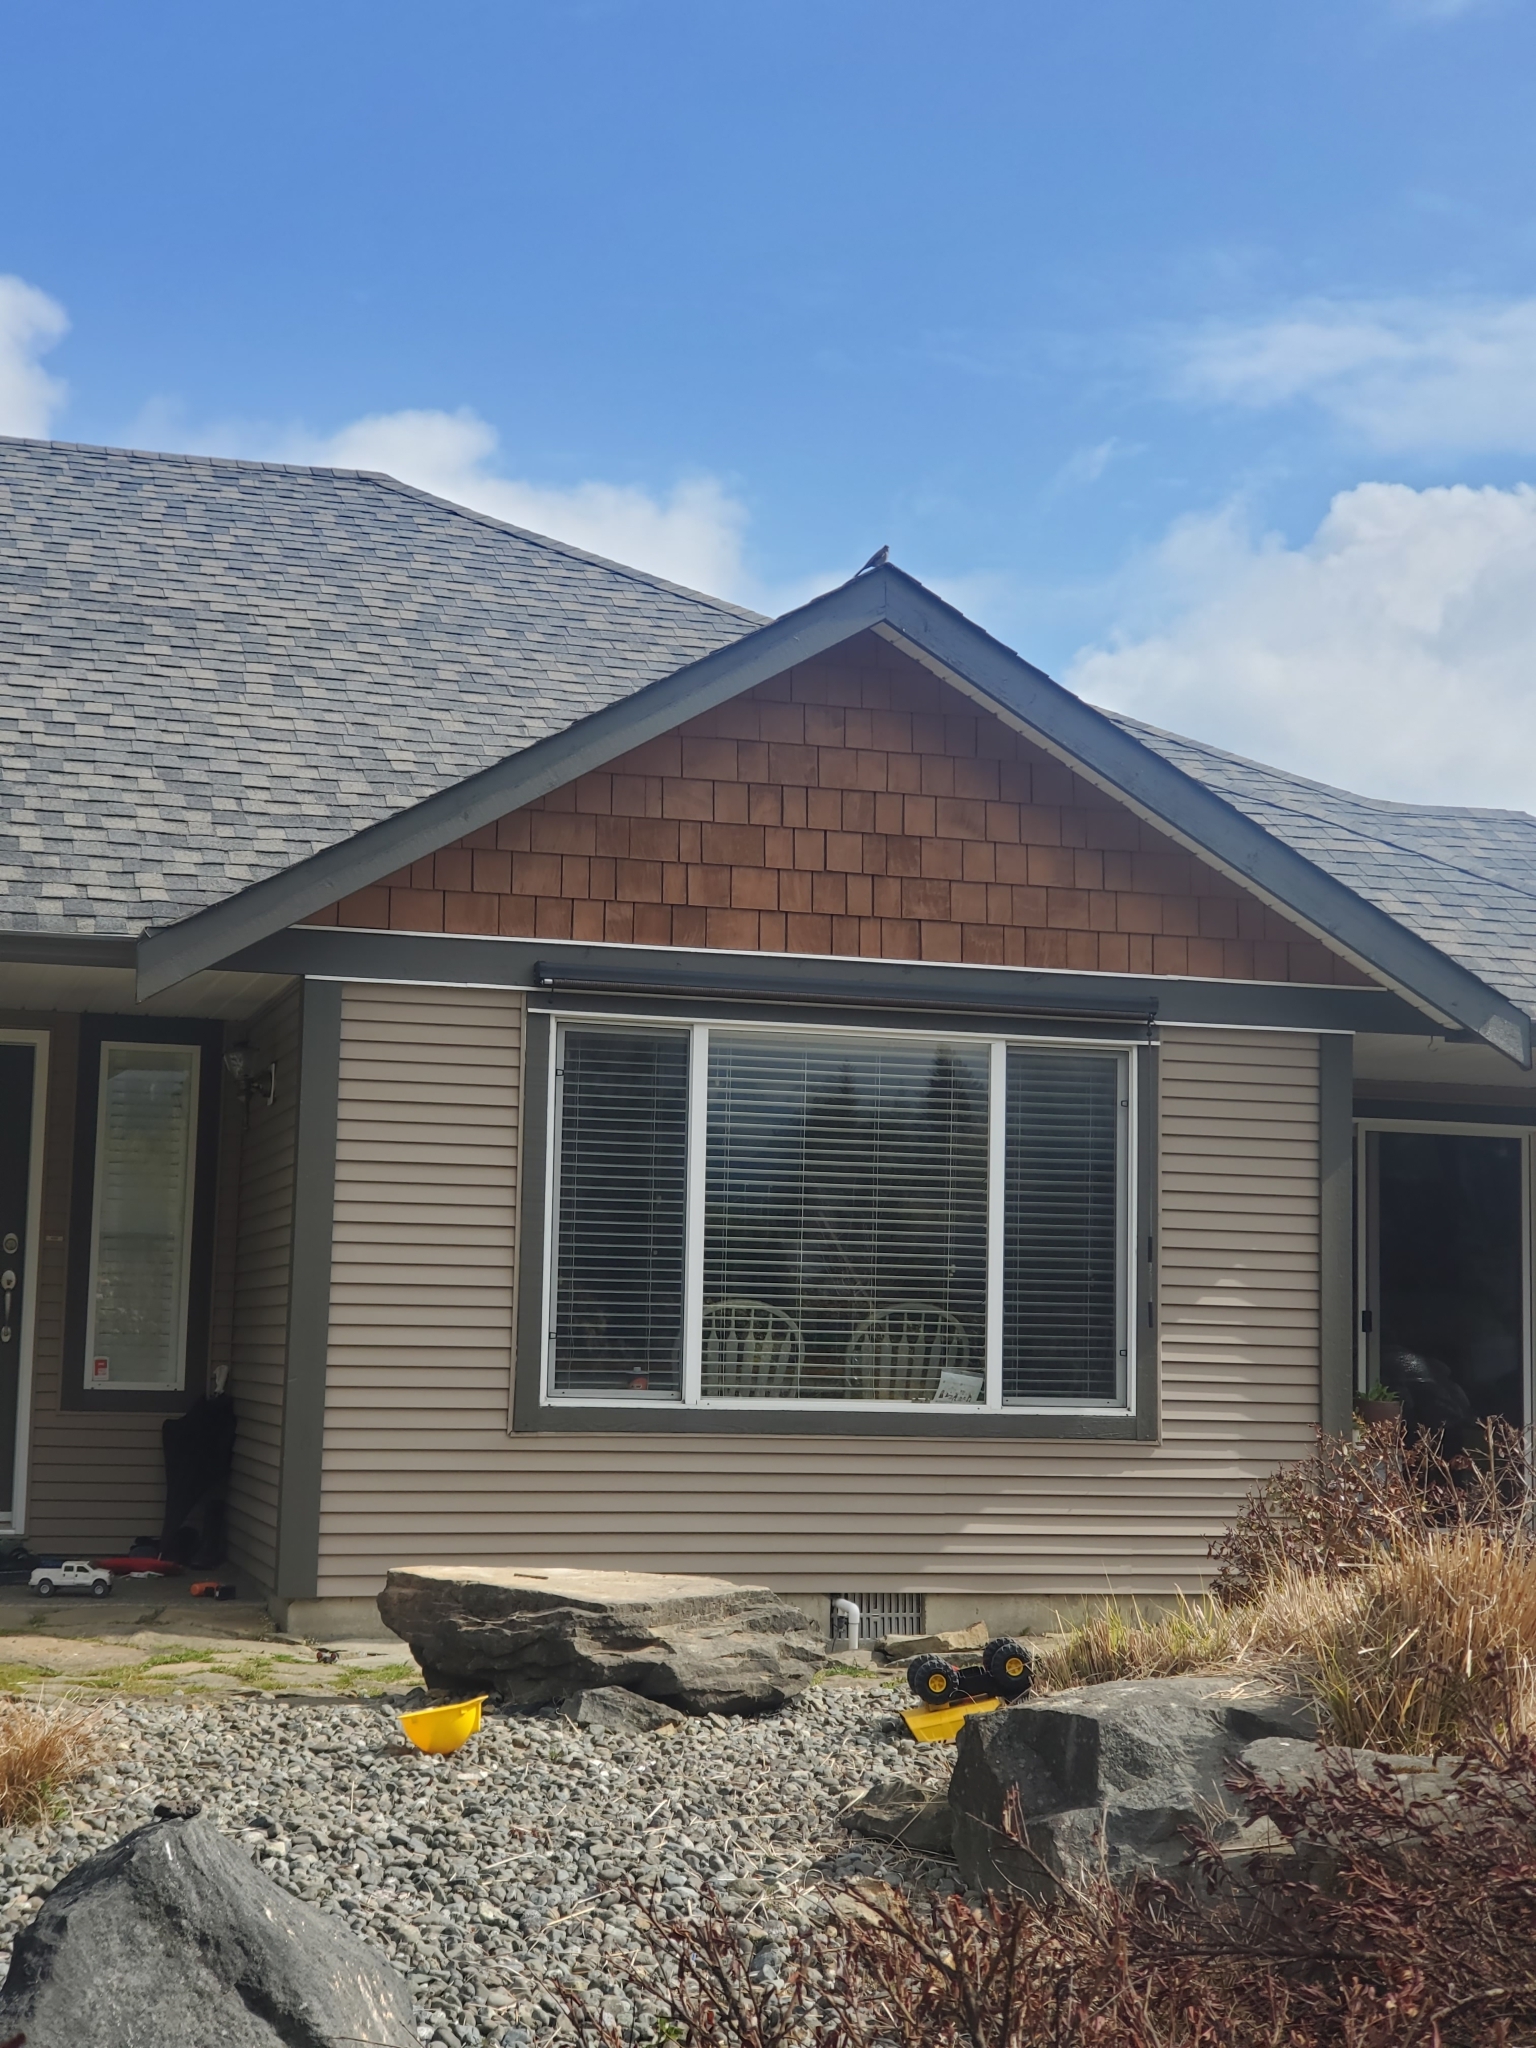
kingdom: Animalia
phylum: Chordata
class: Aves
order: Passeriformes
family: Turdidae
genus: Myadestes
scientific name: Myadestes townsendi
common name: Townsend's solitaire
